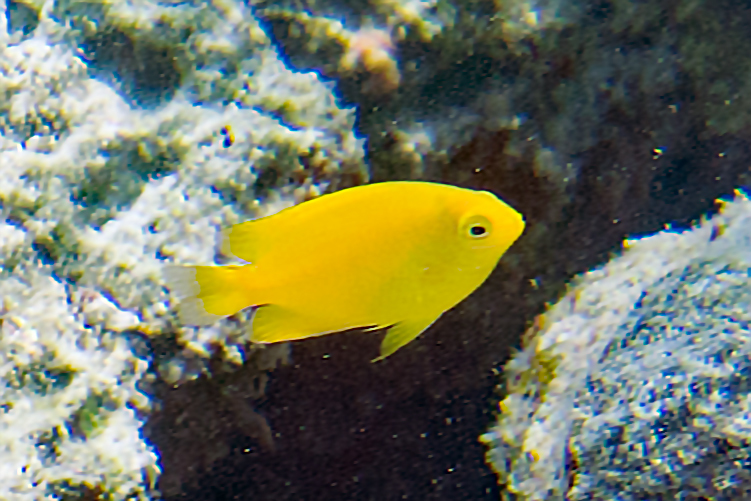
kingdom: Animalia
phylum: Chordata
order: Perciformes
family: Pomacentridae
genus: Pomacentrus
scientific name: Pomacentrus moluccensis
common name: Lemon damsel
